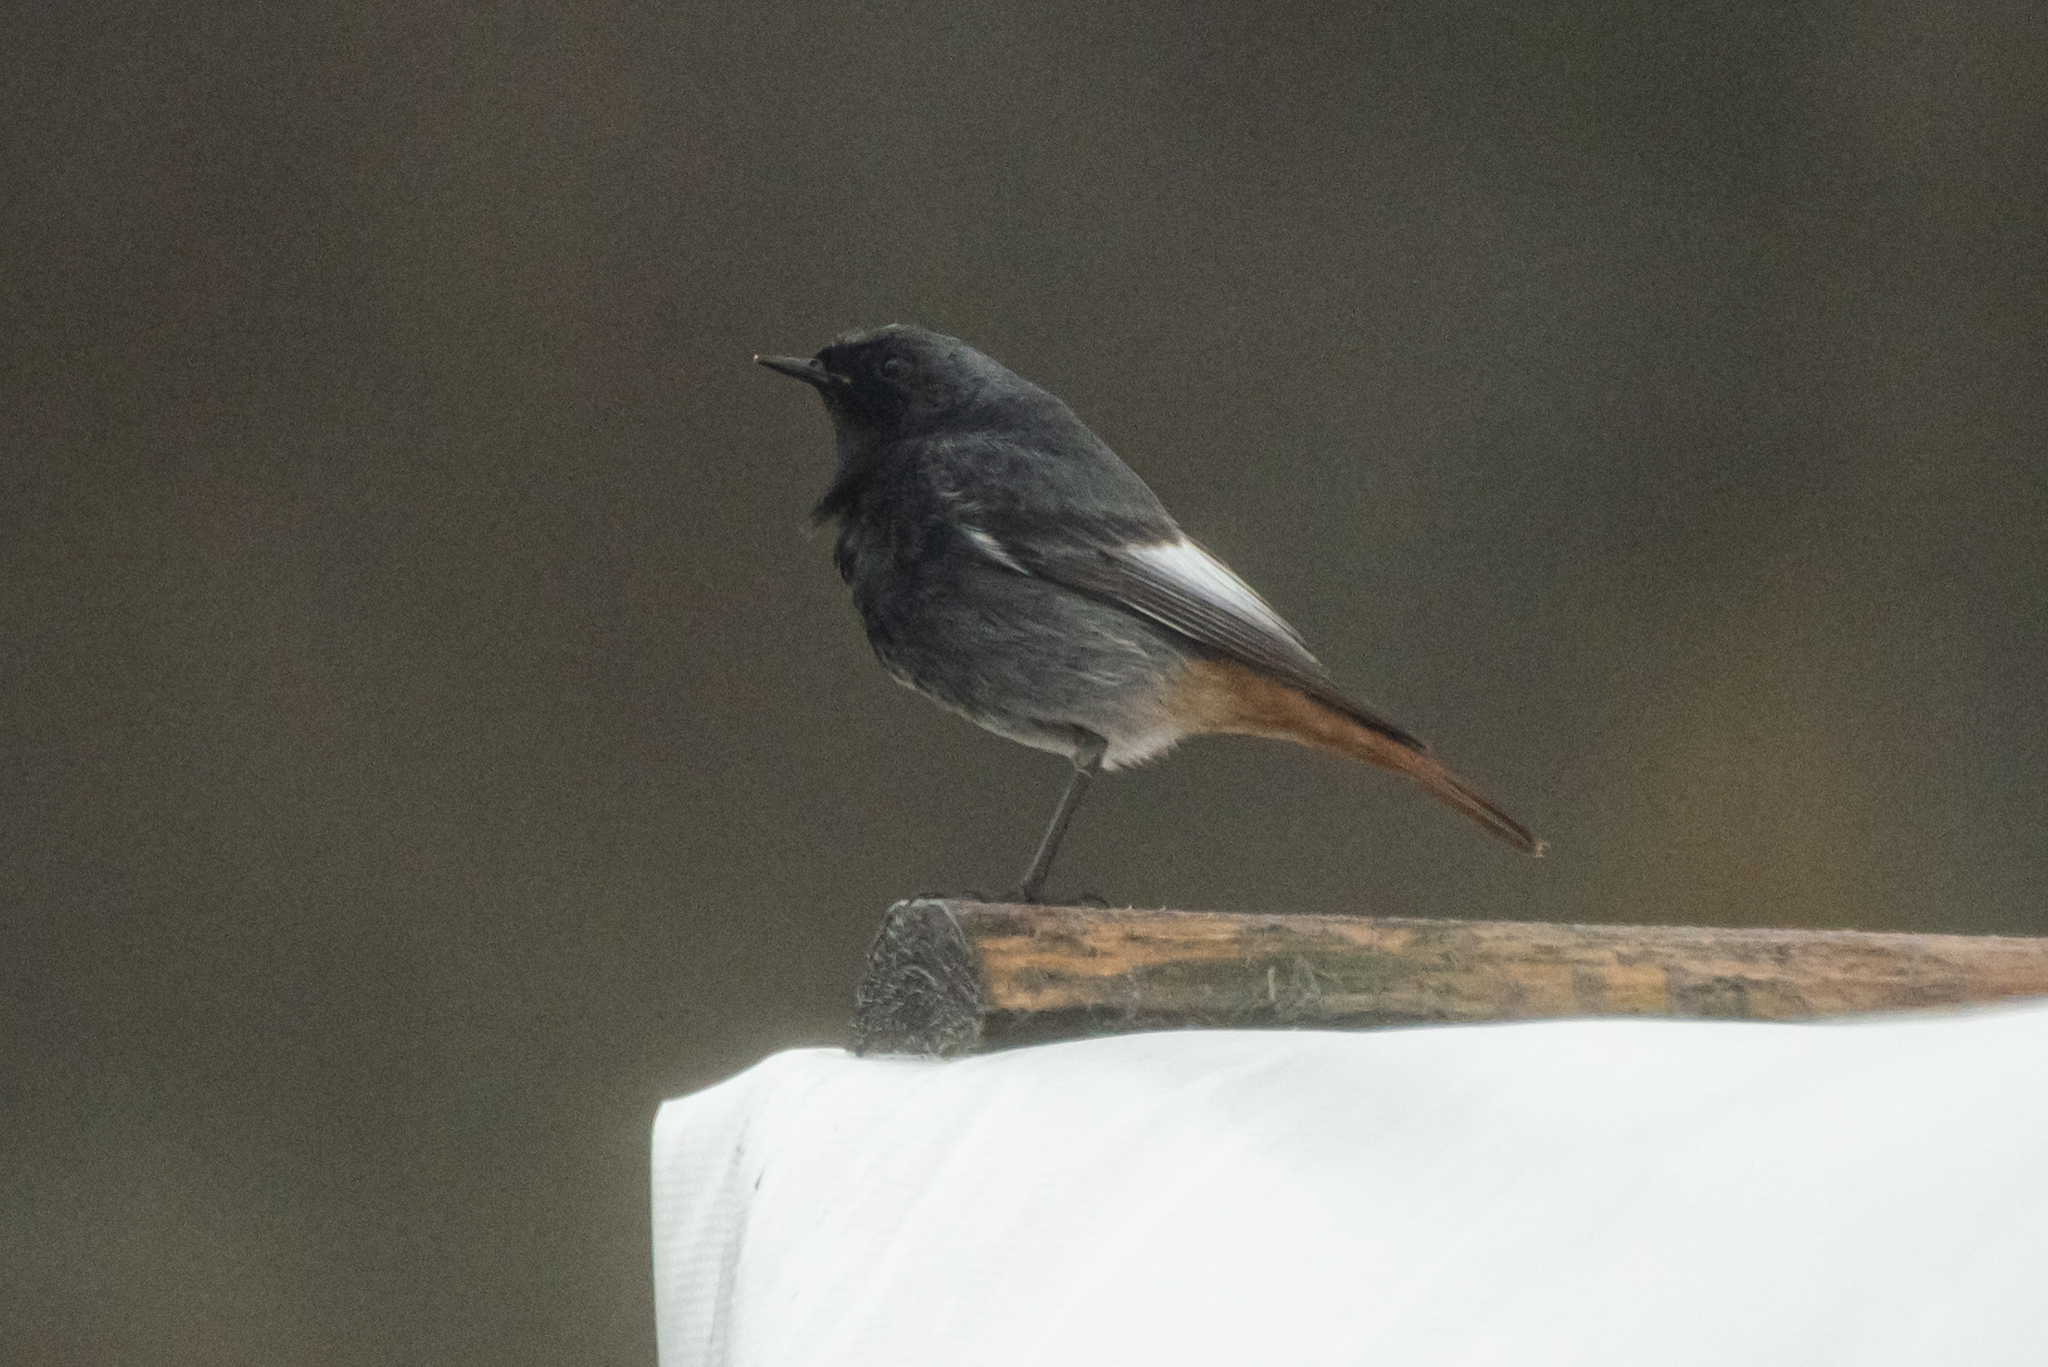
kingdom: Animalia
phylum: Chordata
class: Aves
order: Passeriformes
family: Muscicapidae
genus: Phoenicurus
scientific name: Phoenicurus ochruros
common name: Black redstart
